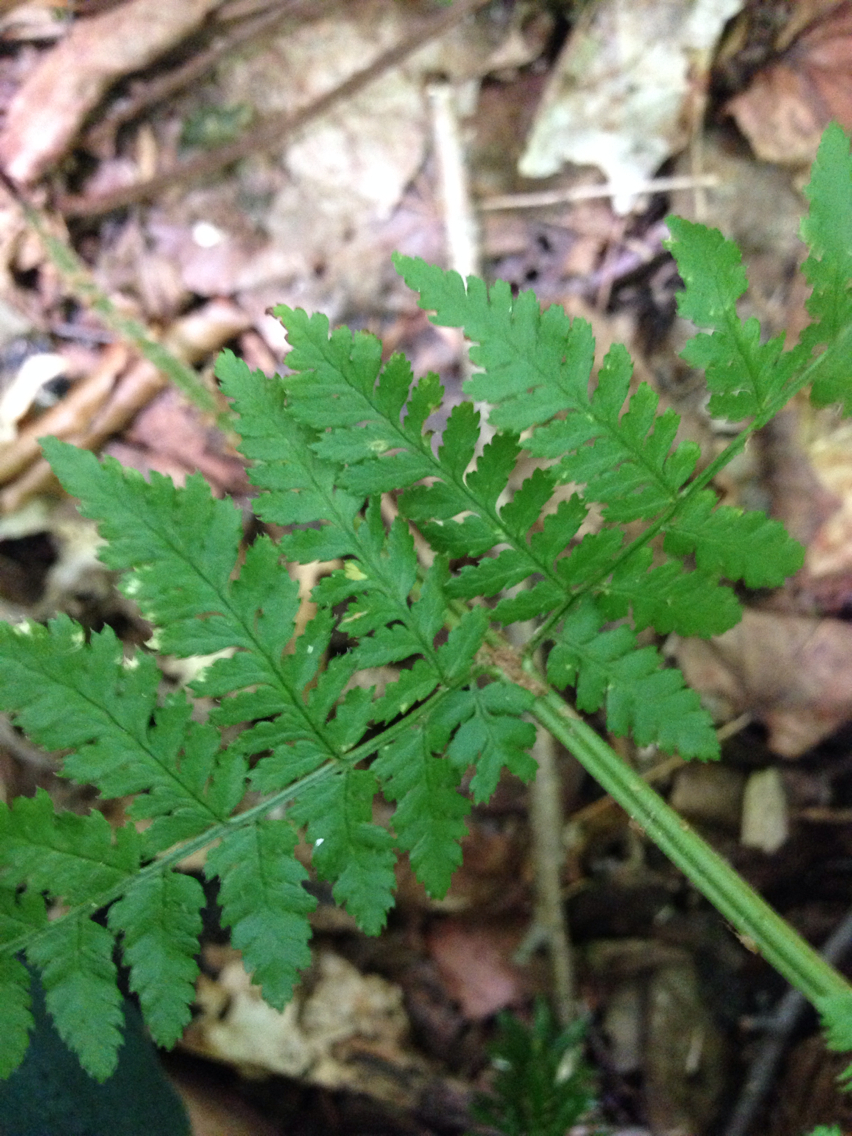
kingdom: Plantae
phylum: Tracheophyta
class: Polypodiopsida
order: Polypodiales
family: Dryopteridaceae
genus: Dryopteris
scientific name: Dryopteris triploidea
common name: Fruitful wood fern
